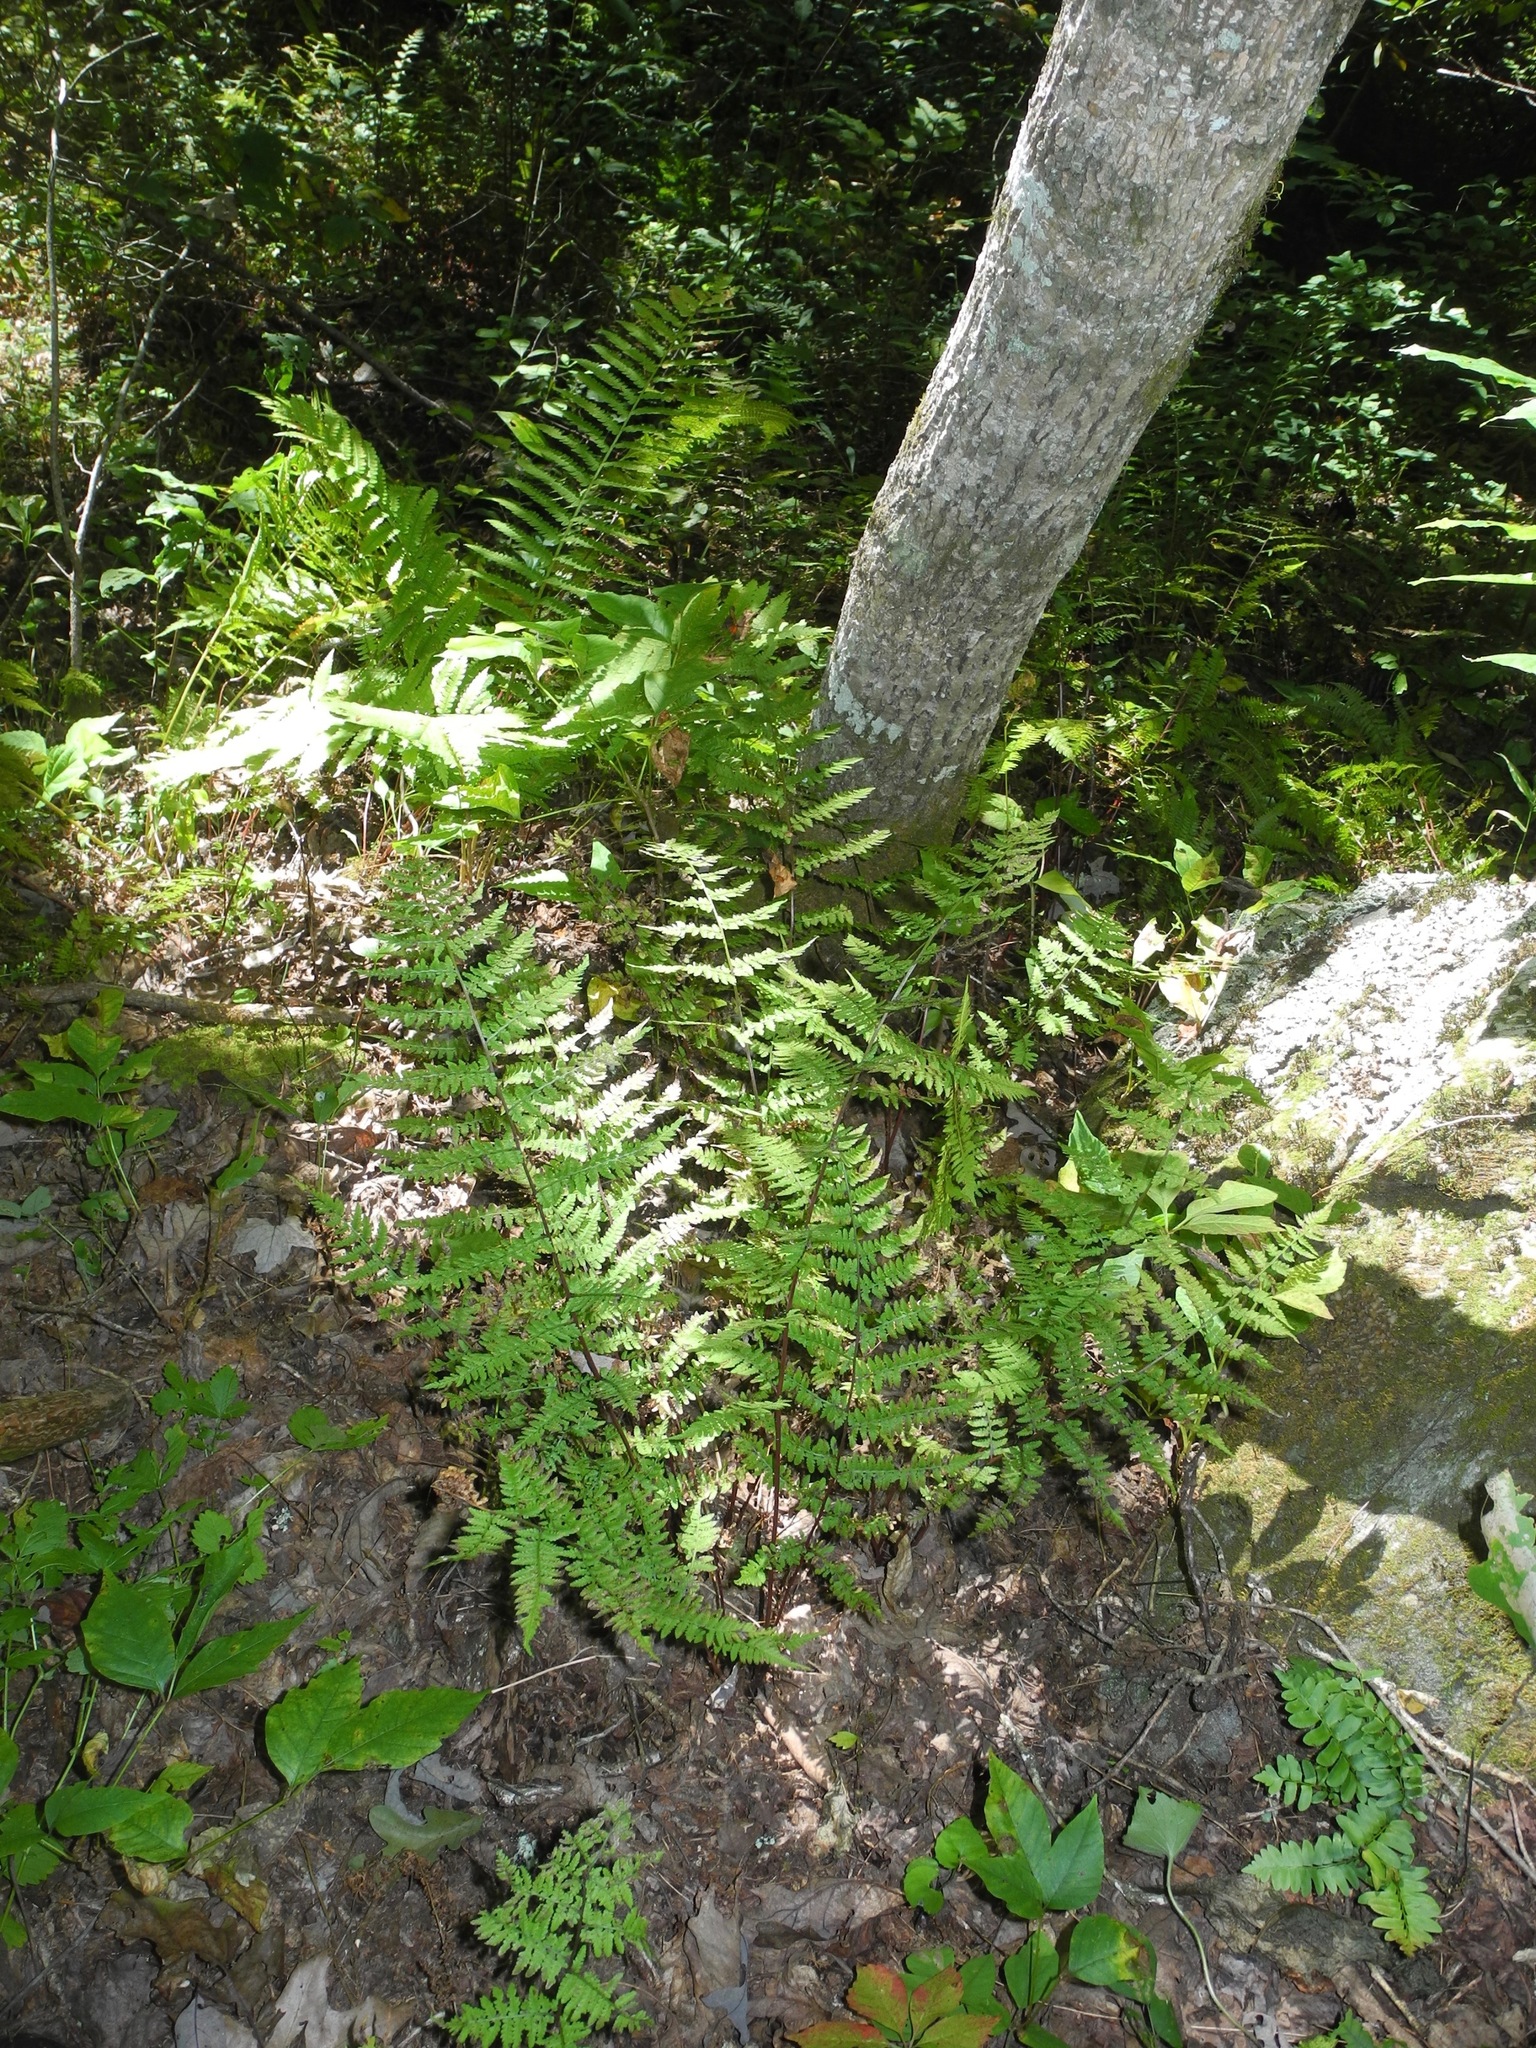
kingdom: Plantae
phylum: Tracheophyta
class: Polypodiopsida
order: Polypodiales
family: Athyriaceae
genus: Athyrium
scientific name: Athyrium asplenioides
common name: Southern lady fern
